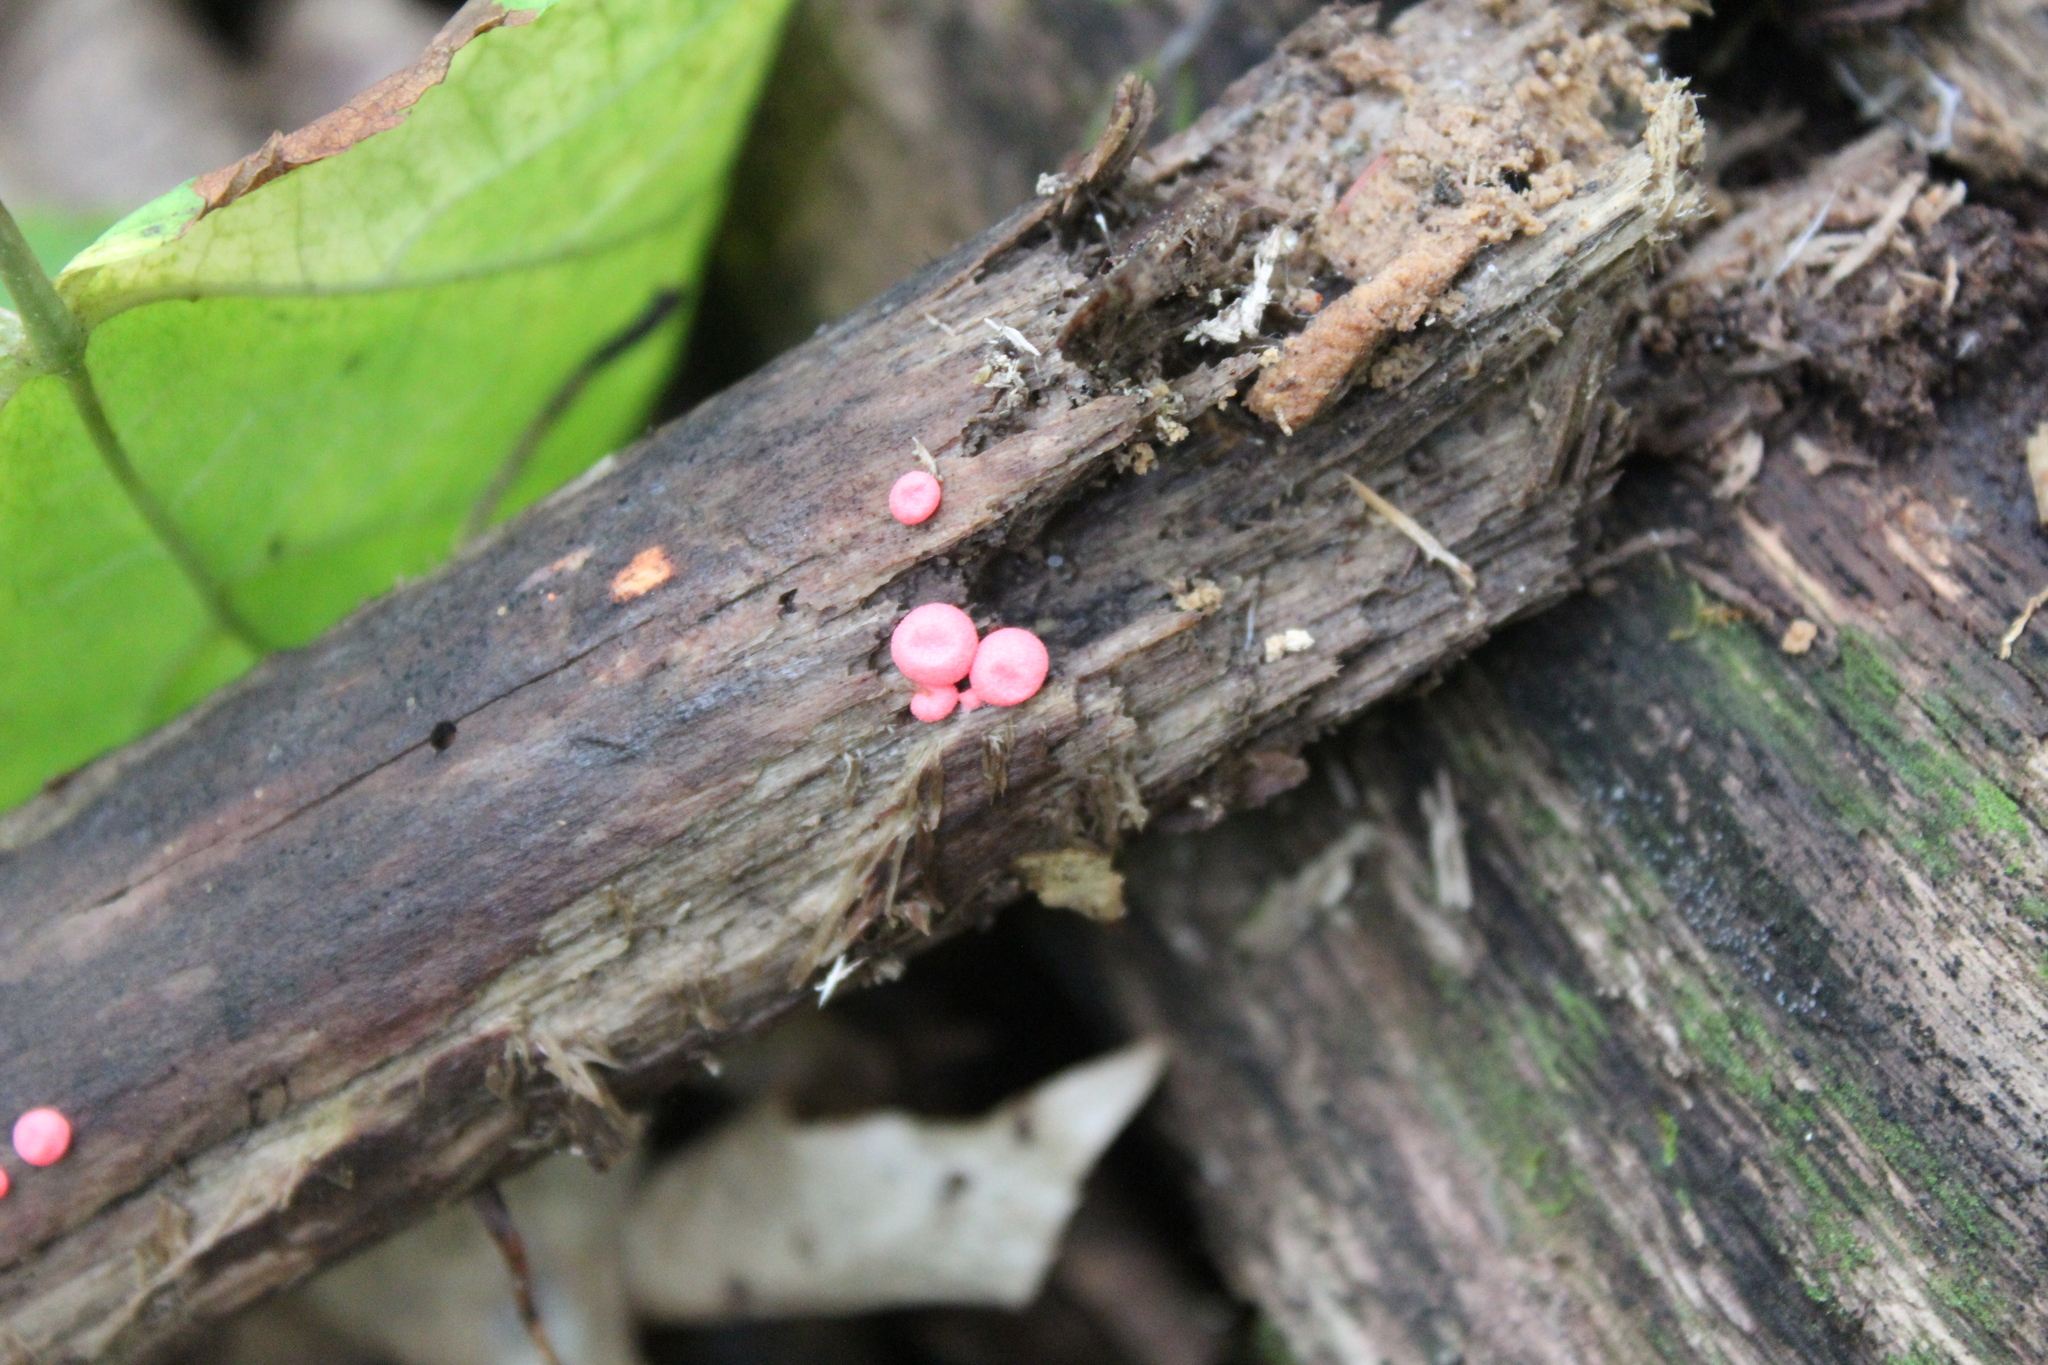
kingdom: Protozoa
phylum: Mycetozoa
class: Myxomycetes
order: Cribrariales
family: Tubiferaceae
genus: Lycogala
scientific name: Lycogala epidendrum
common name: Wolf's milk
